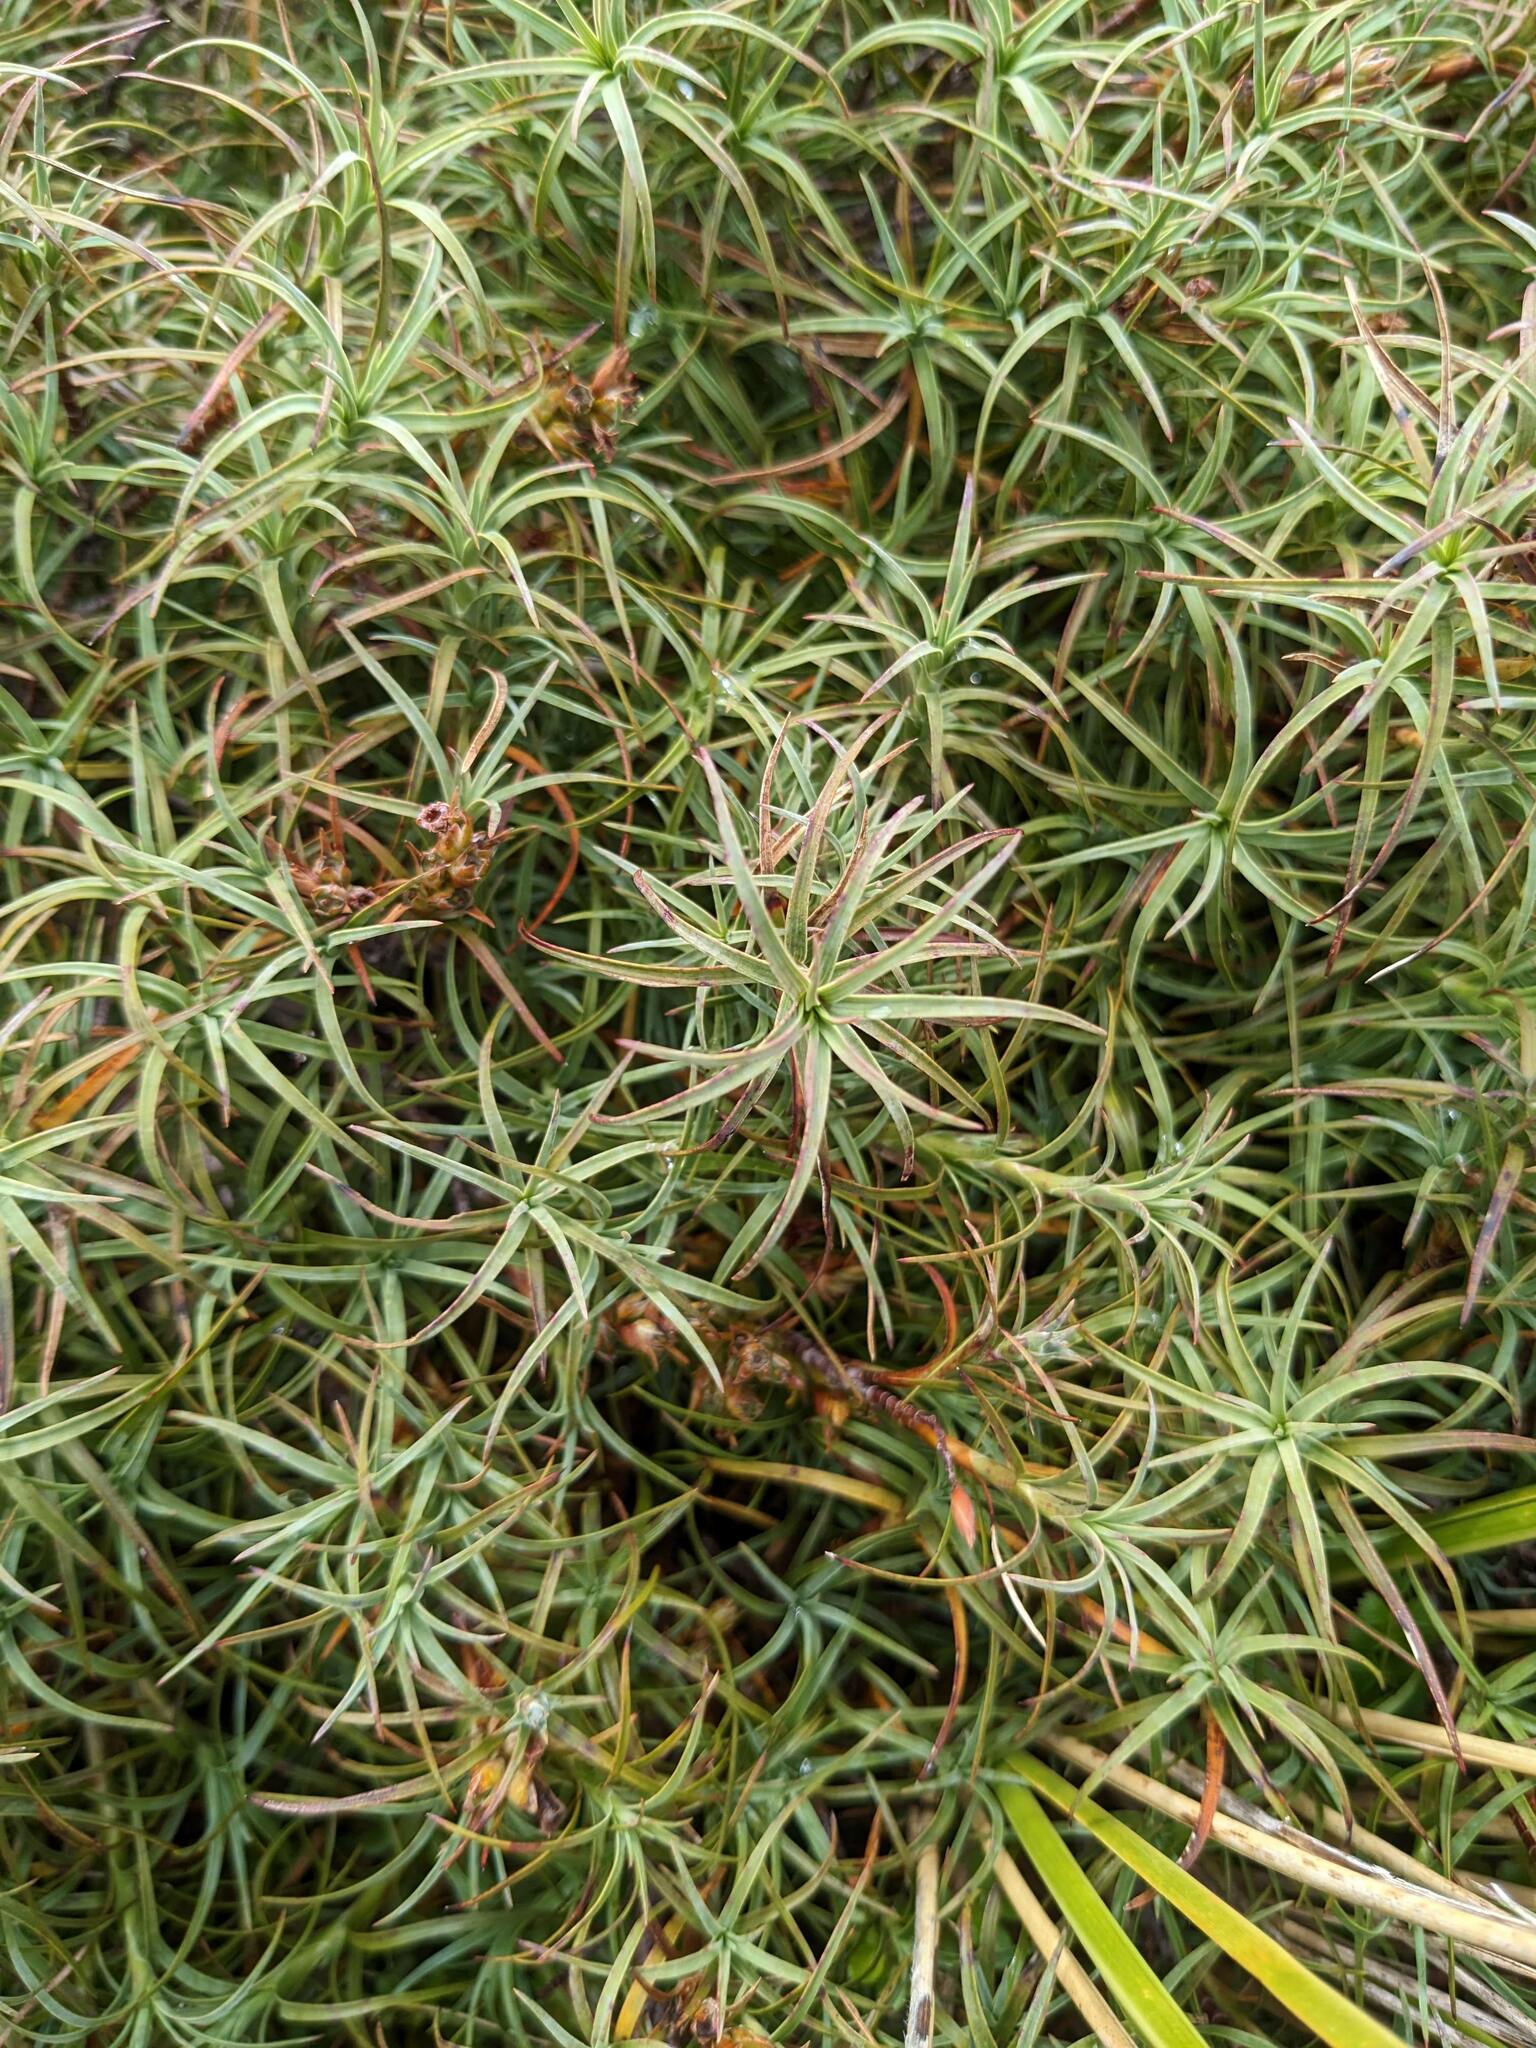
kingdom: Plantae
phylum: Tracheophyta
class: Magnoliopsida
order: Ericales
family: Ericaceae
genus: Dracophyllum
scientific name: Dracophyllum recurvum
